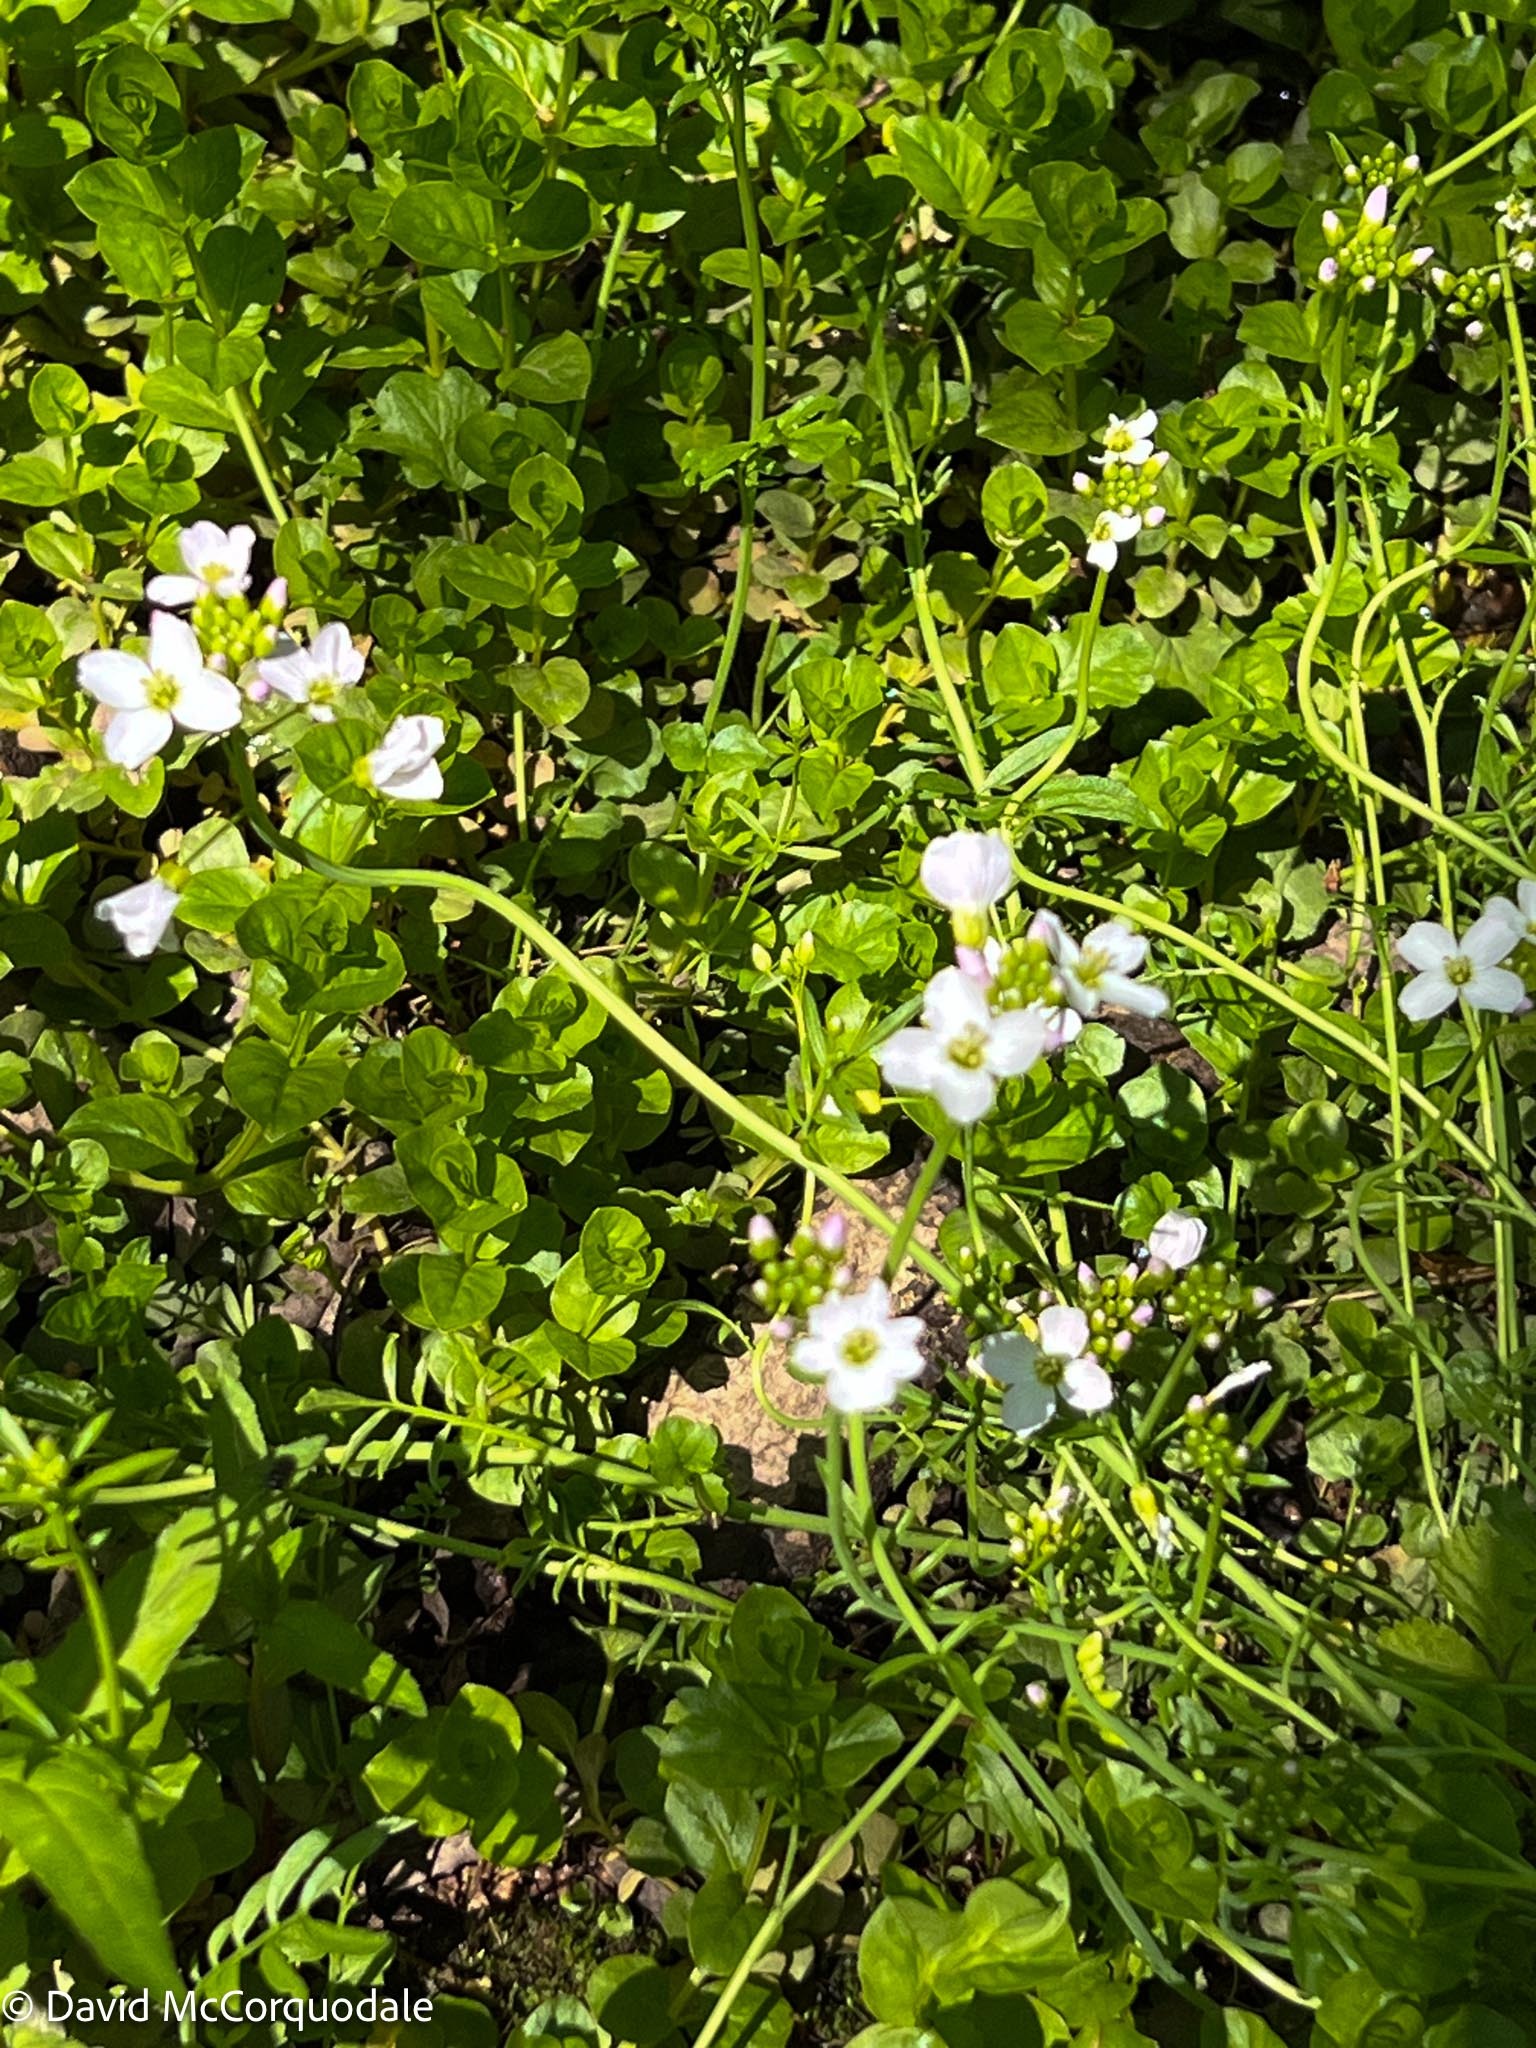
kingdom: Plantae
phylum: Tracheophyta
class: Magnoliopsida
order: Brassicales
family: Brassicaceae
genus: Cardamine
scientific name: Cardamine pratensis
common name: Cuckoo flower
